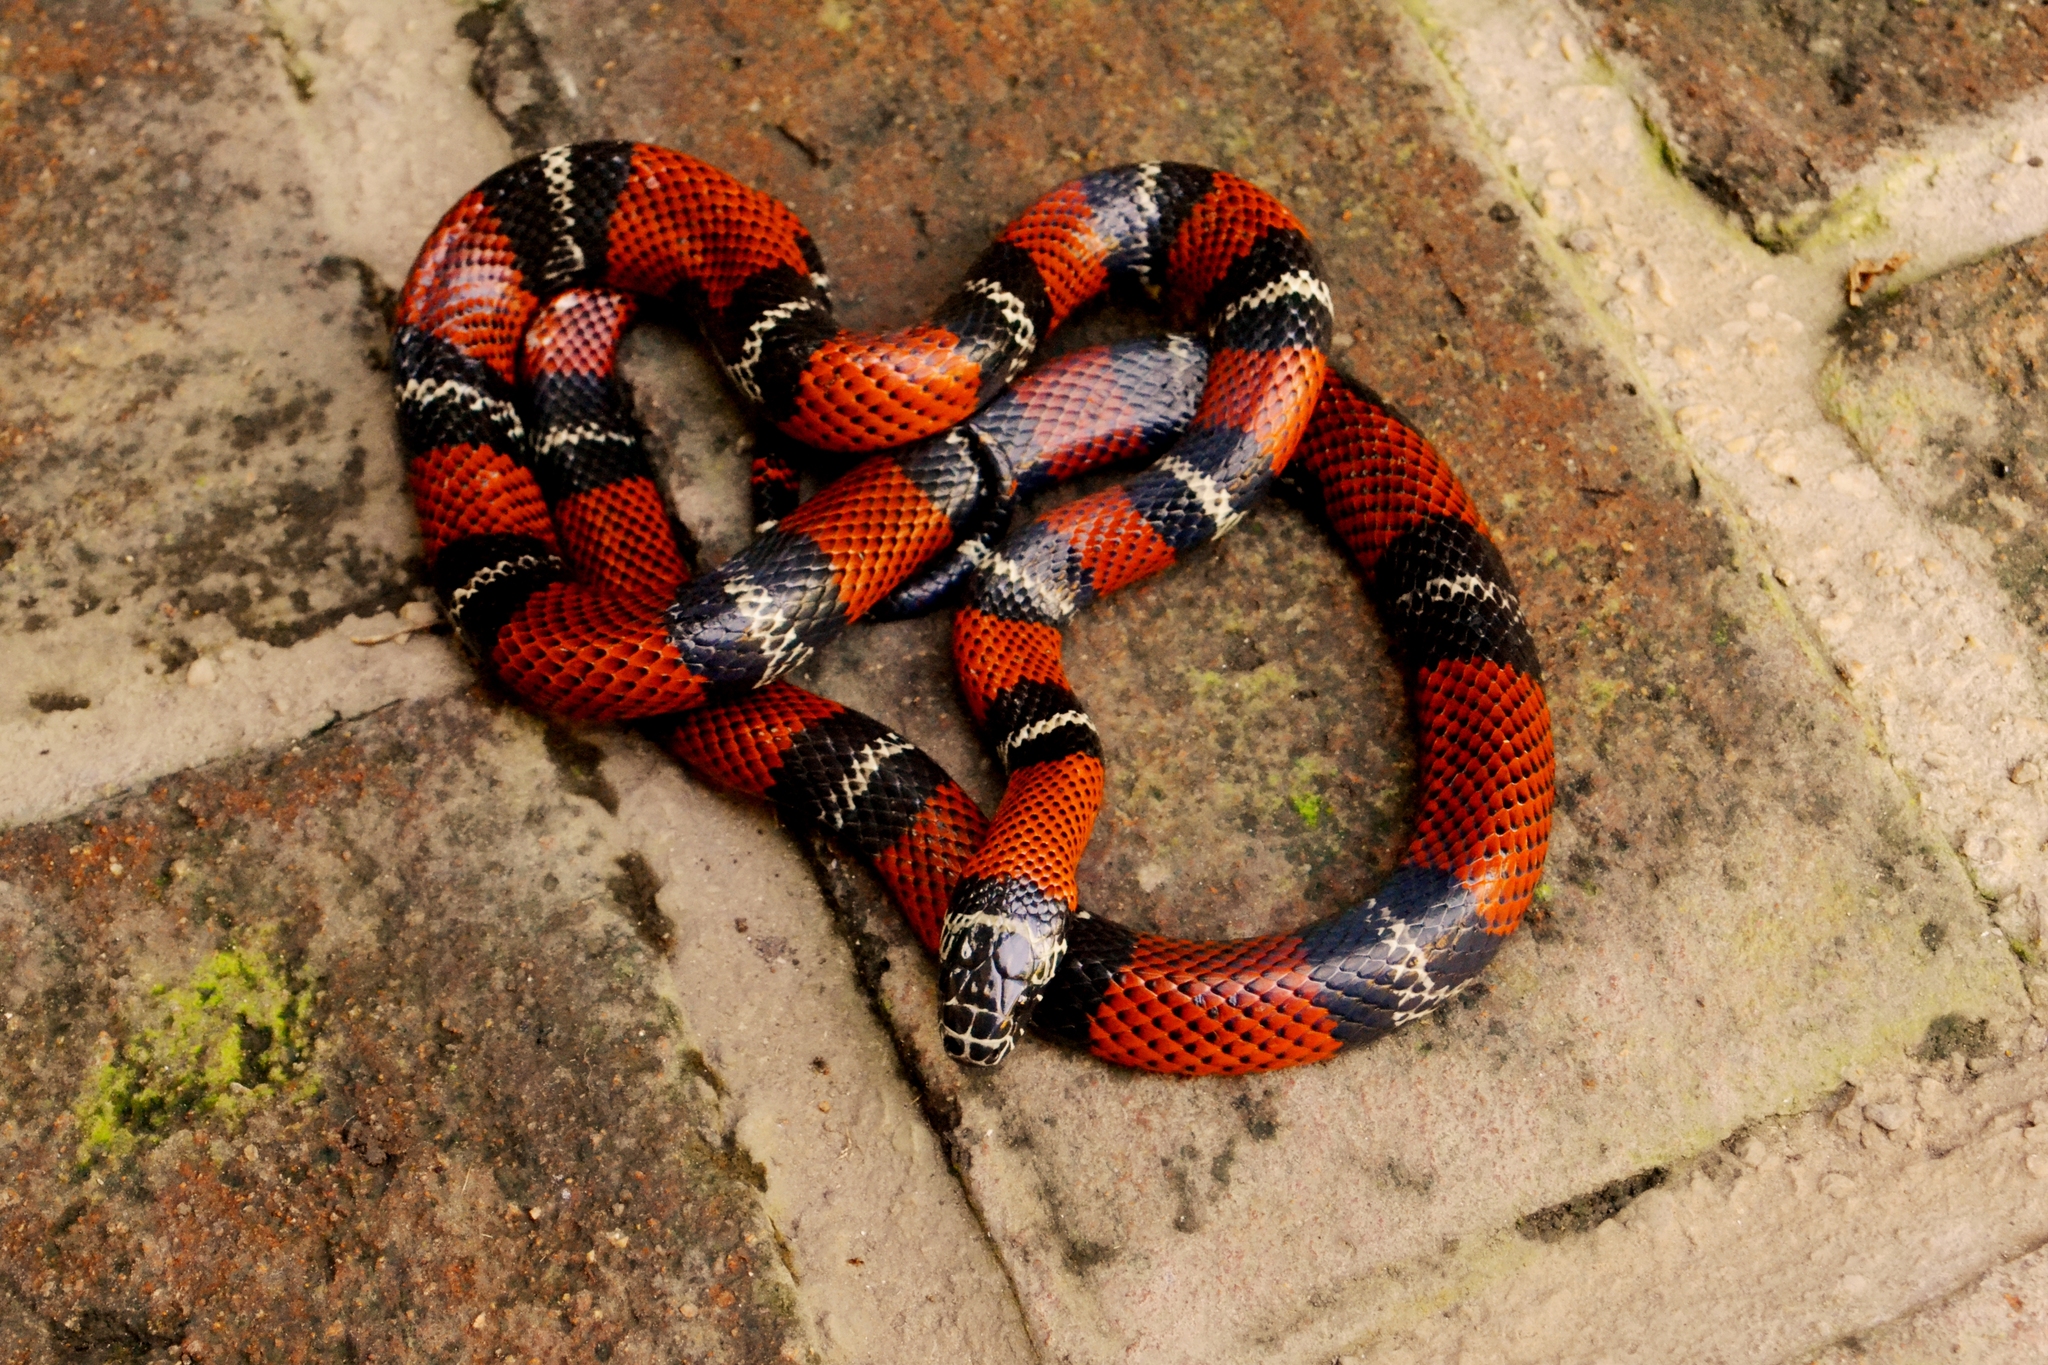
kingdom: Animalia
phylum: Chordata
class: Squamata
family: Colubridae
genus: Lampropeltis
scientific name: Lampropeltis abnorma
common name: Honduran milk snake
